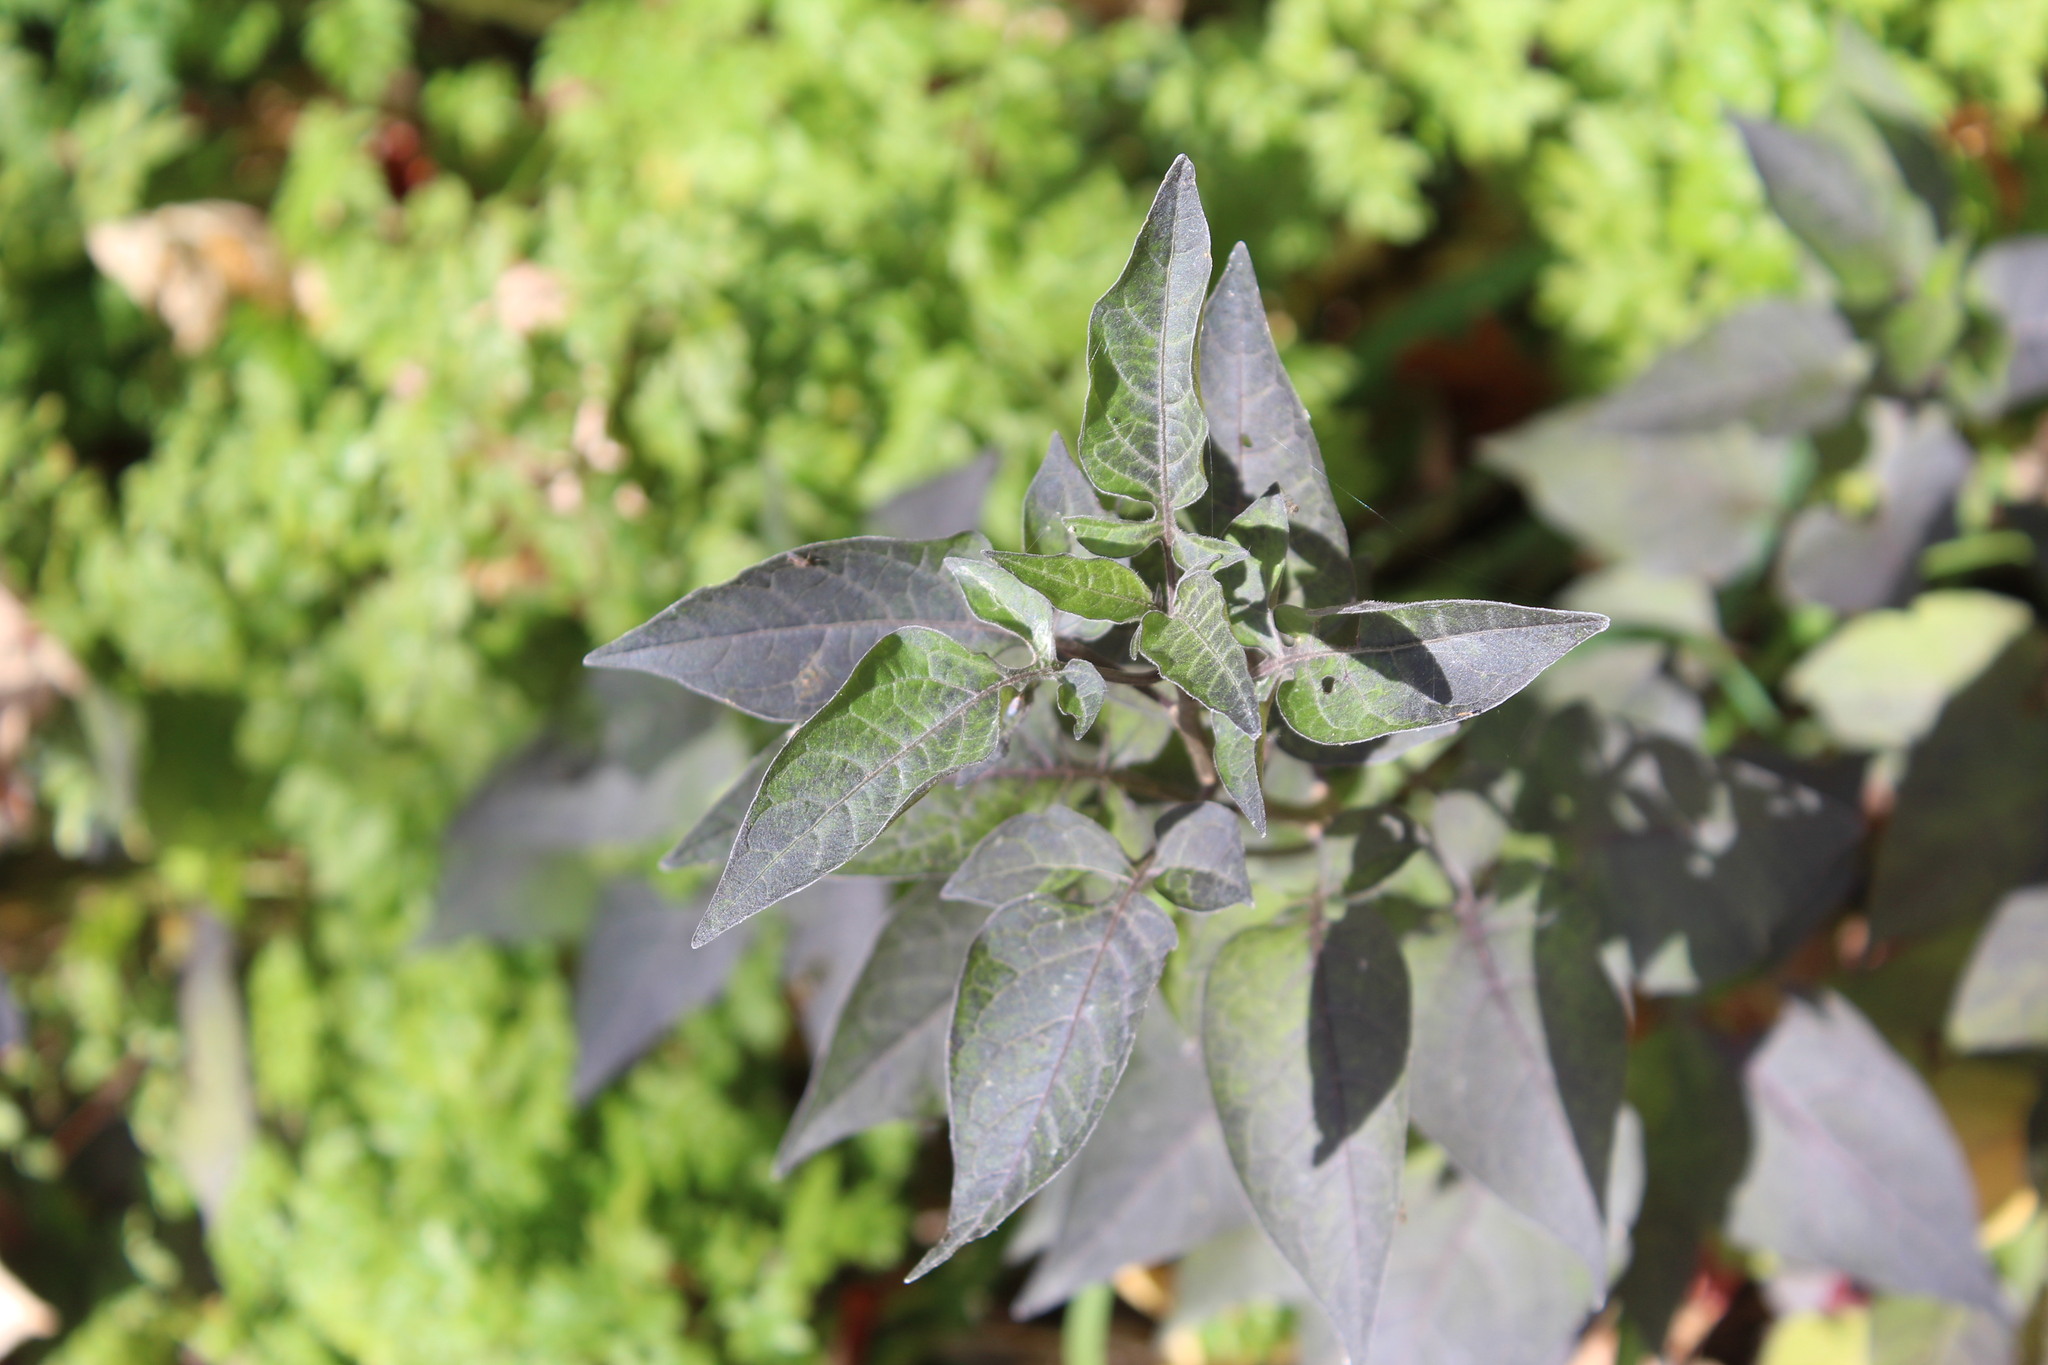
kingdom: Plantae
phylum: Tracheophyta
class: Magnoliopsida
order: Solanales
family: Solanaceae
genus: Solanum
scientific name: Solanum dulcamara
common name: Climbing nightshade
